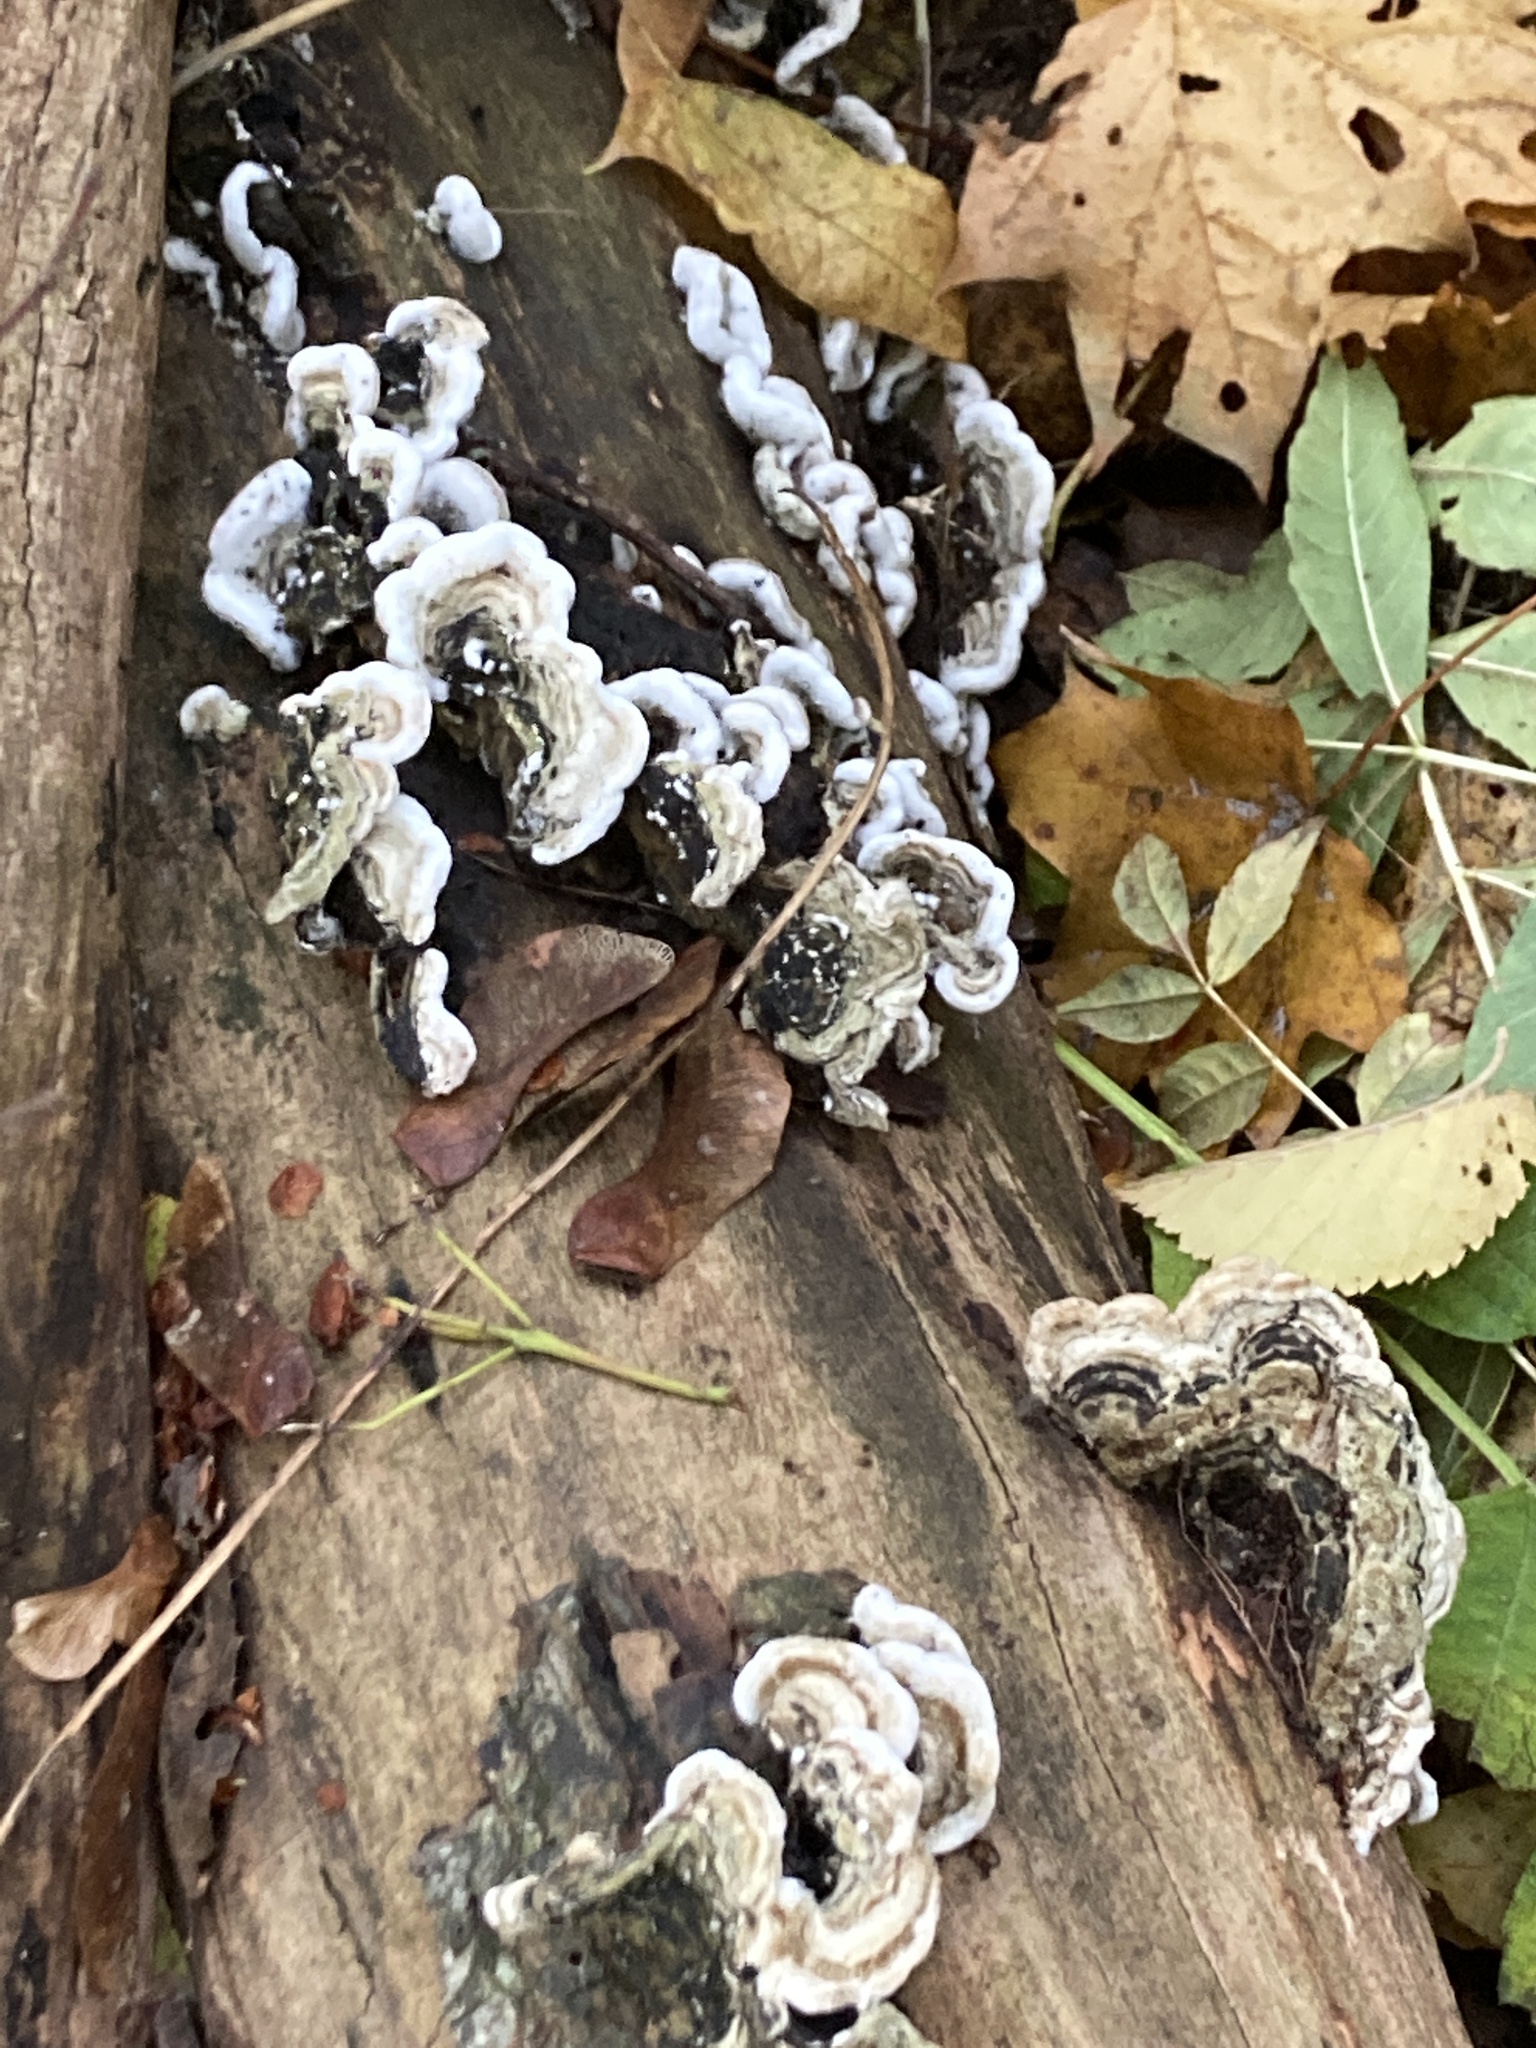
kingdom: Fungi
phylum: Basidiomycota
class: Agaricomycetes
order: Auriculariales
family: Auriculariaceae
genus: Auricularia
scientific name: Auricularia mesenterica
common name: Tripe fungus
